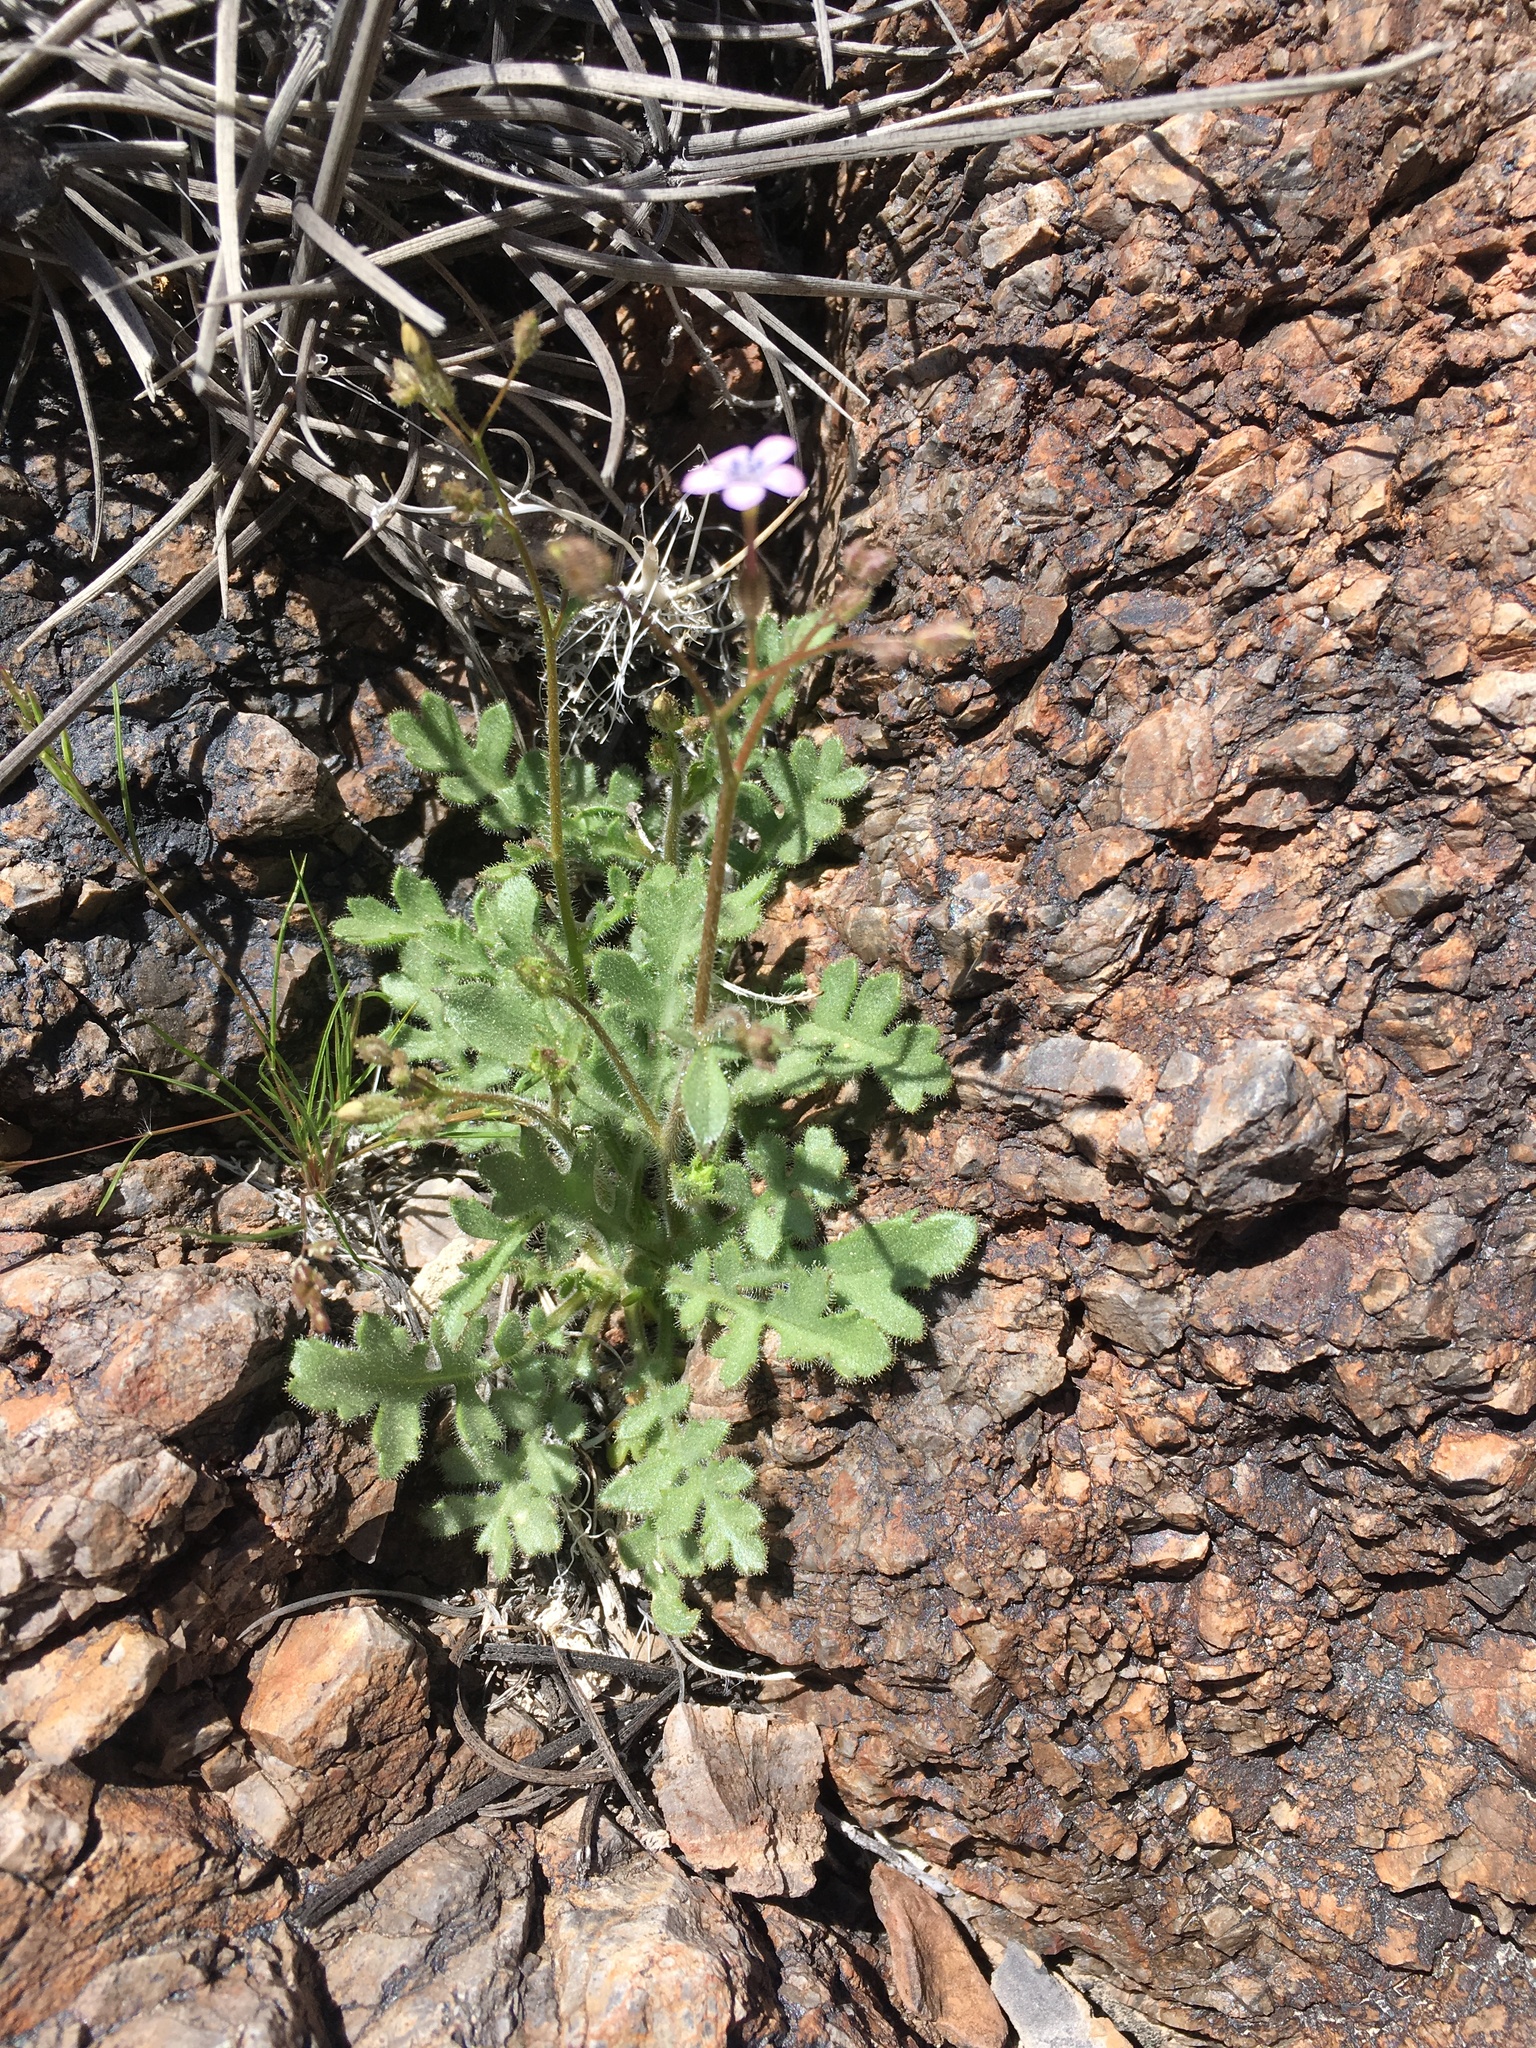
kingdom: Plantae
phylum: Tracheophyta
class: Magnoliopsida
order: Ericales
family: Polemoniaceae
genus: Gilia
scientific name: Gilia scopulorum
